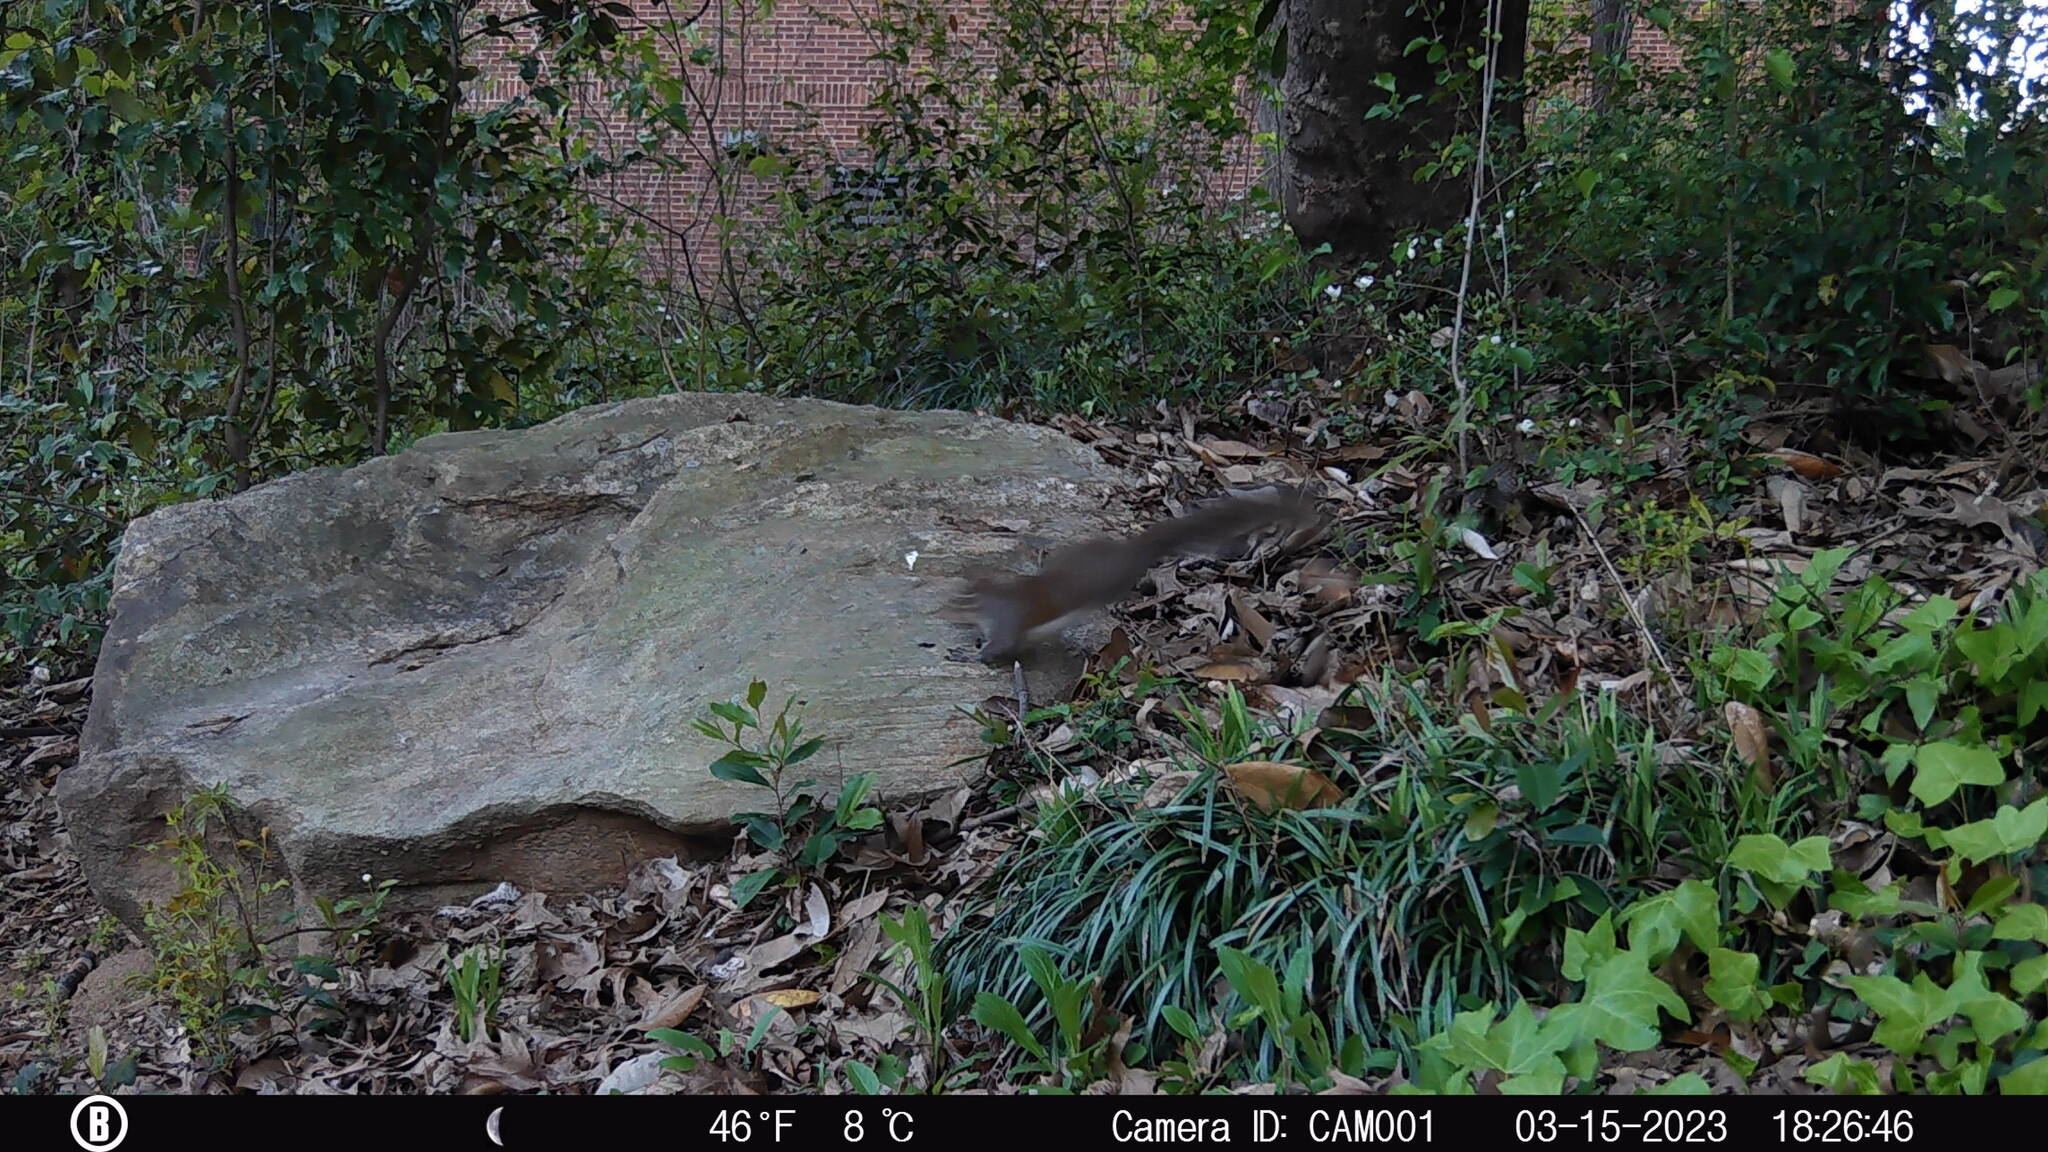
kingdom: Animalia
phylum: Chordata
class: Mammalia
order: Rodentia
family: Sciuridae
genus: Sciurus
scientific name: Sciurus carolinensis
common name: Eastern gray squirrel
